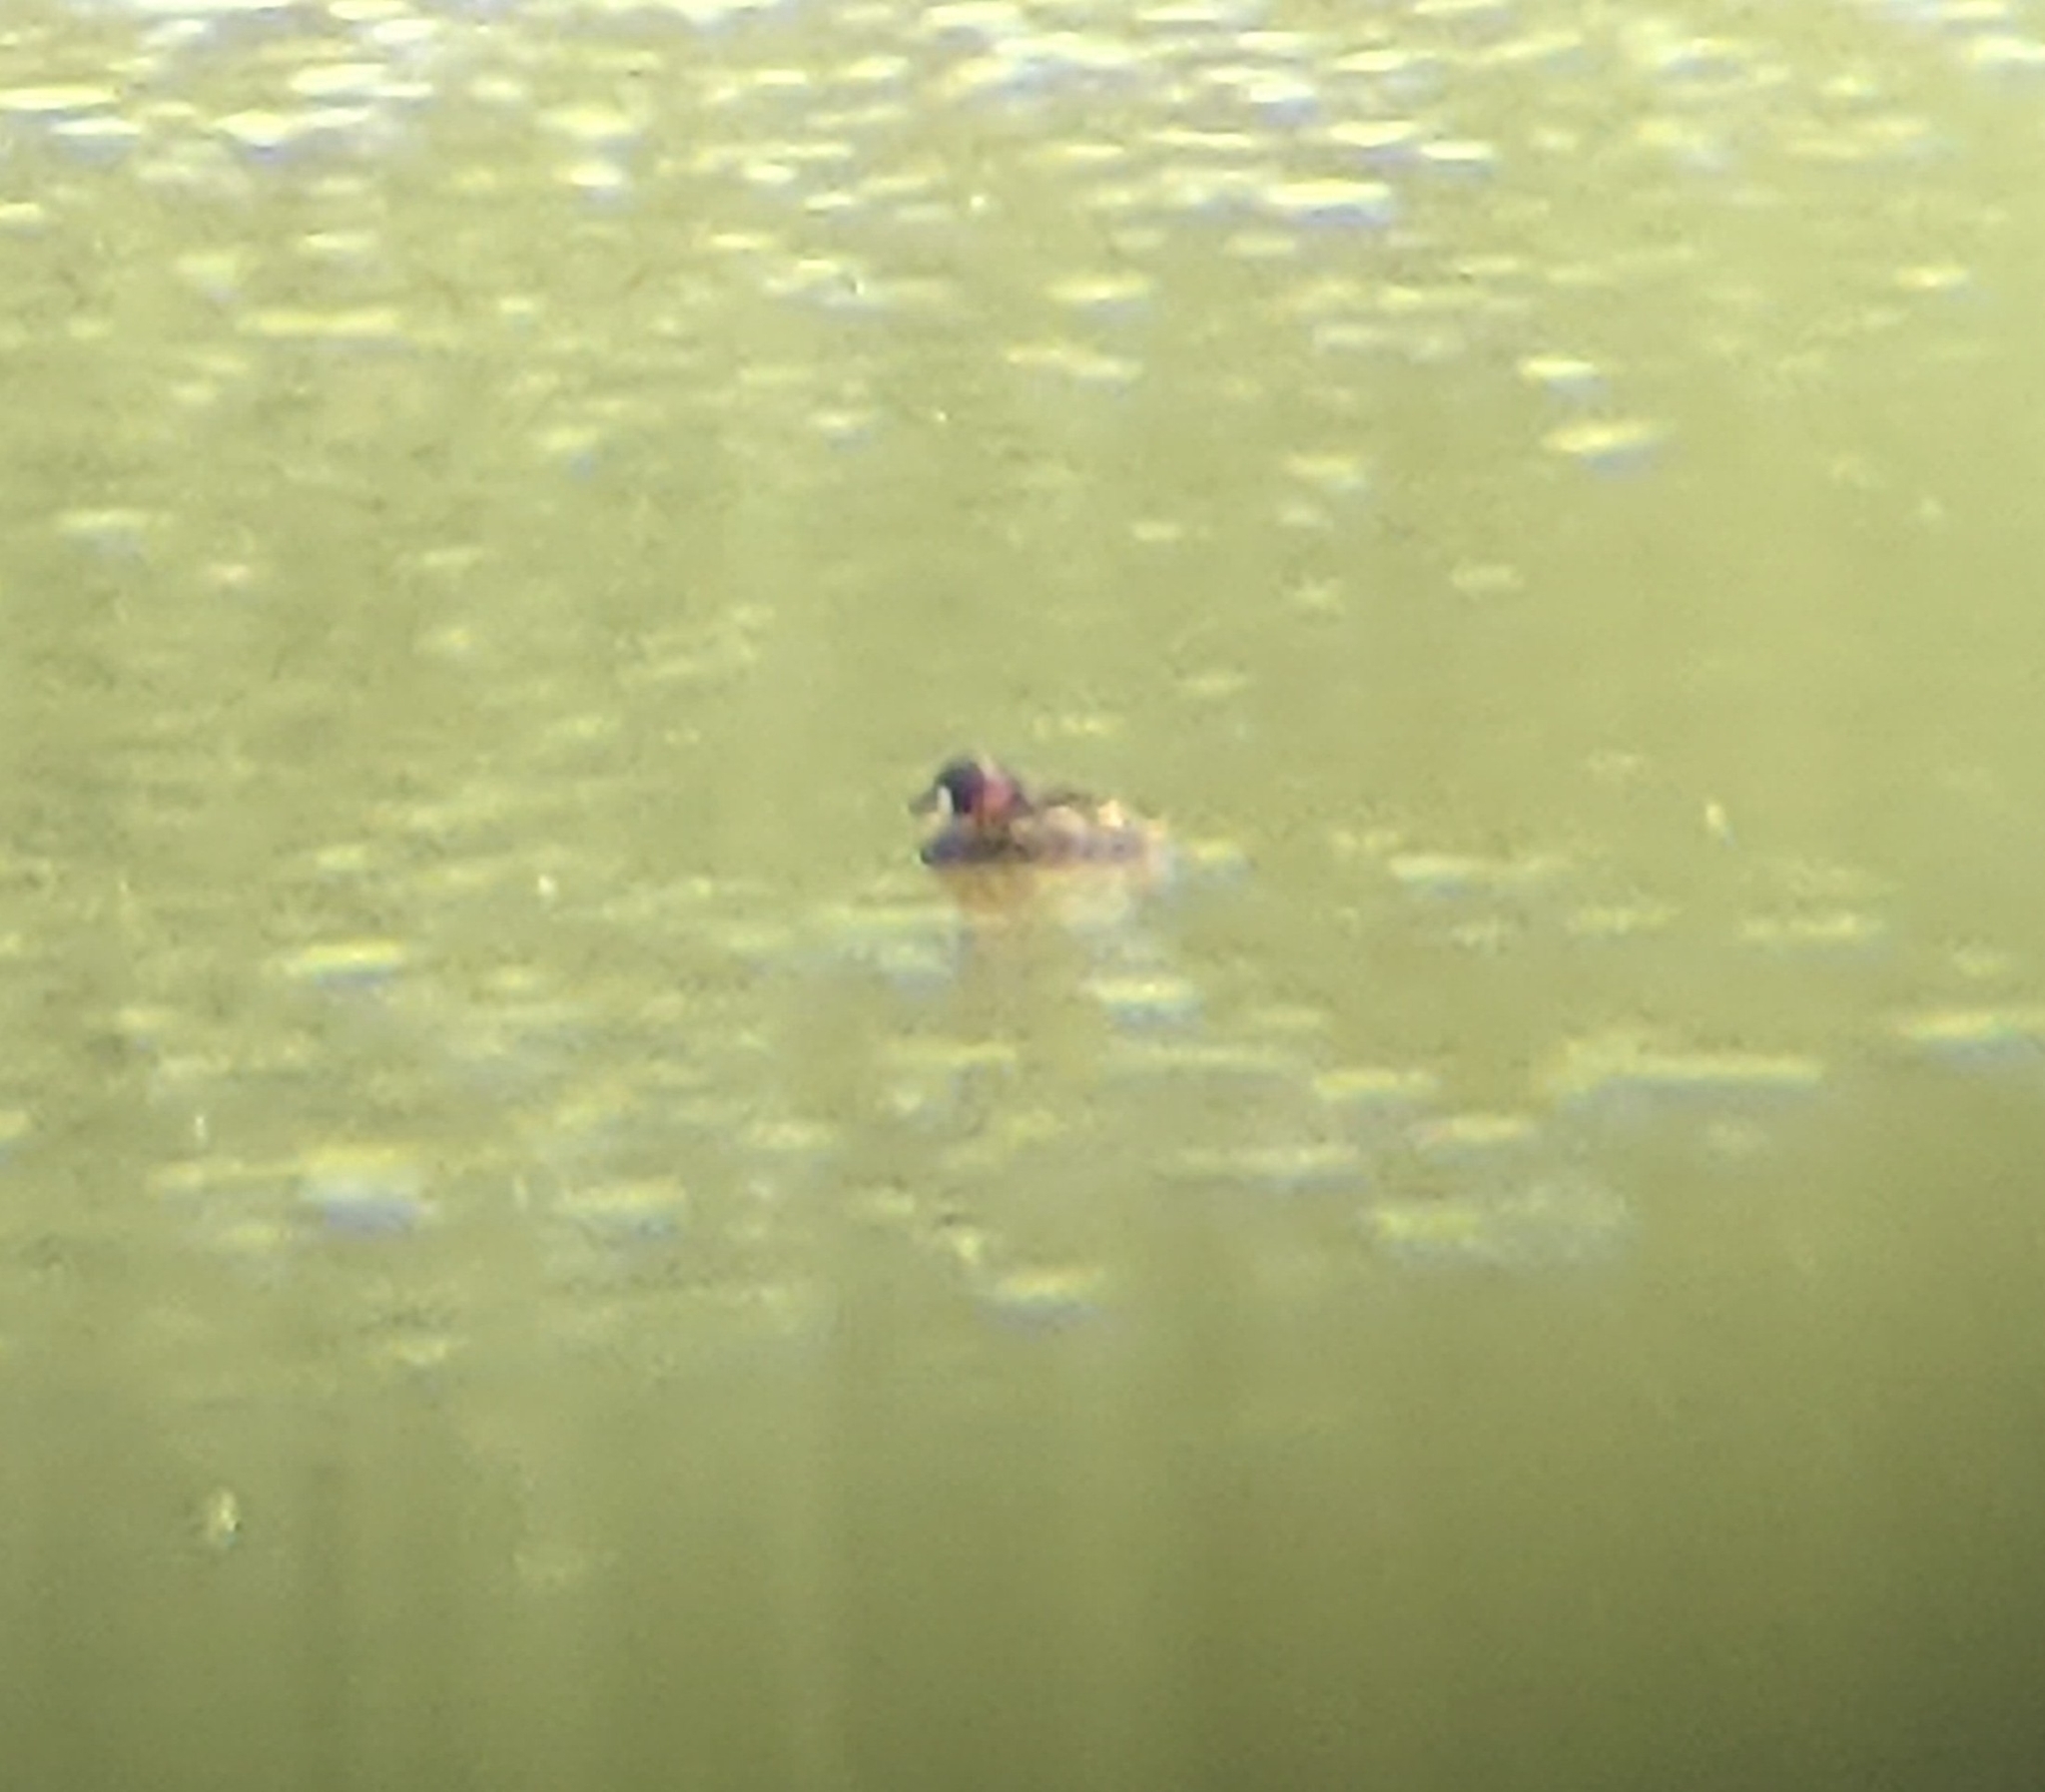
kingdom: Animalia
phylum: Chordata
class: Aves
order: Podicipediformes
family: Podicipedidae
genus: Tachybaptus
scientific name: Tachybaptus ruficollis
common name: Little grebe
